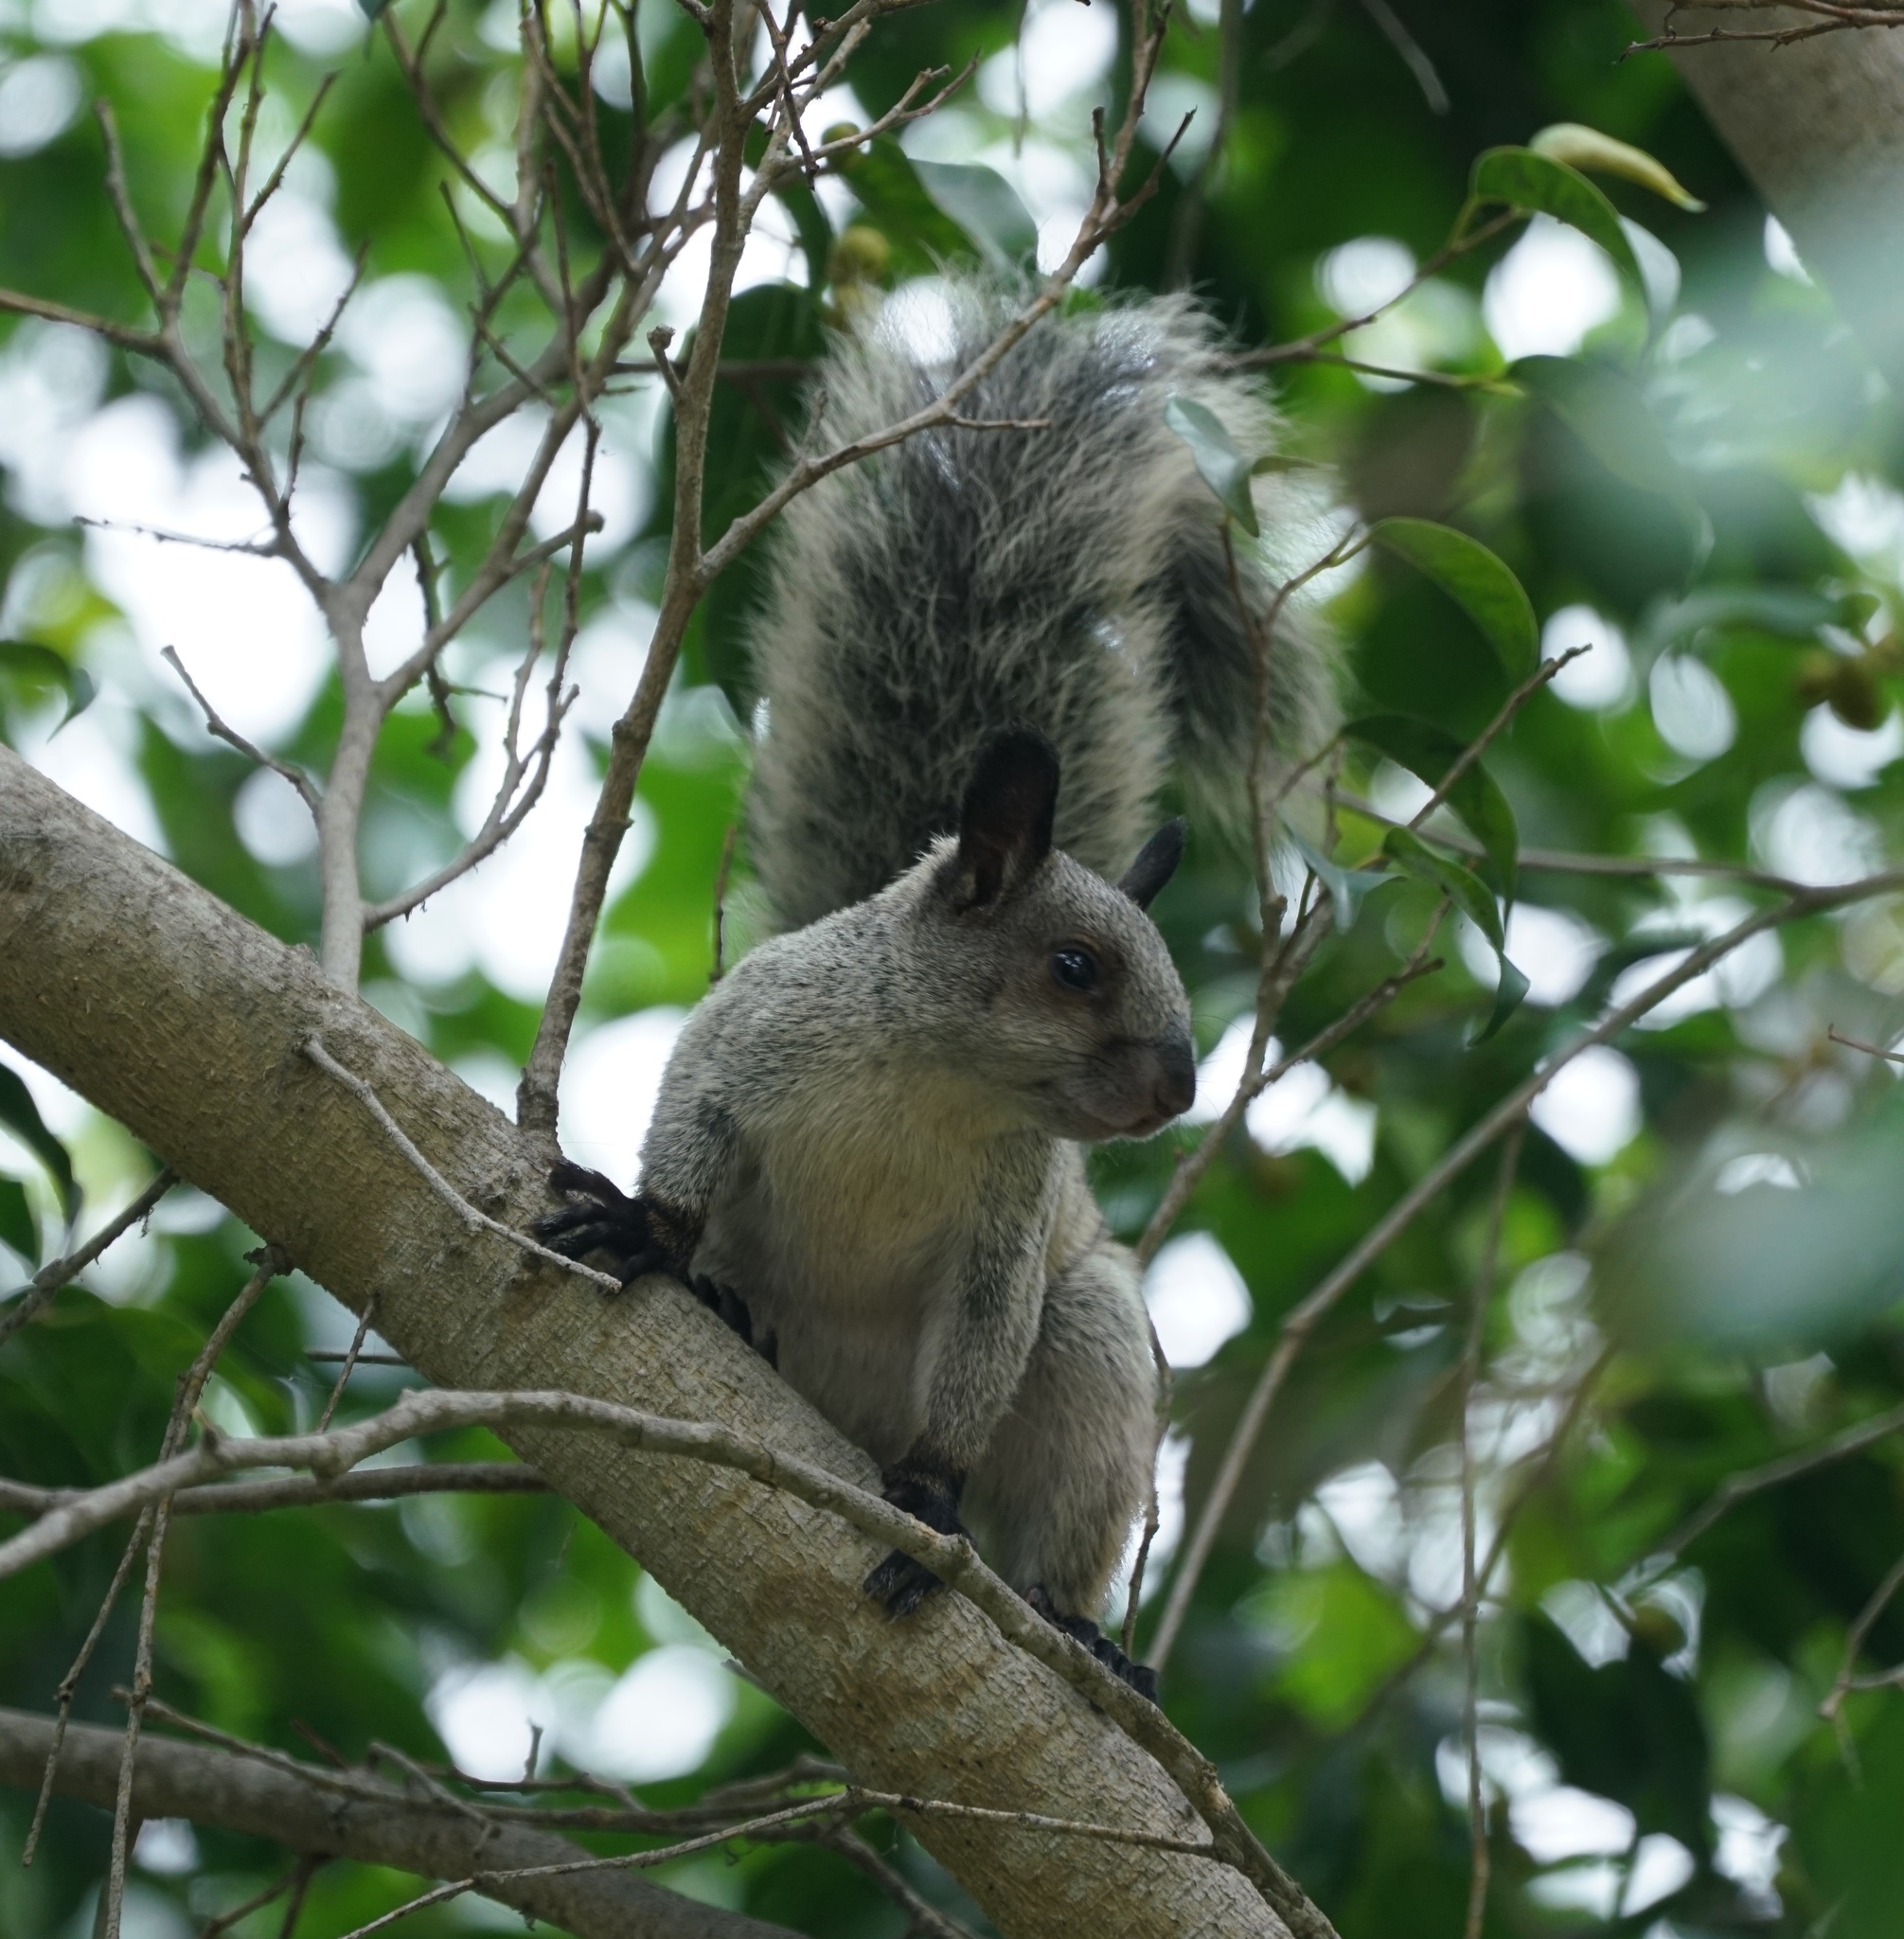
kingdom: Animalia
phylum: Chordata
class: Mammalia
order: Rodentia
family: Sciuridae
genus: Sciurus
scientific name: Sciurus stramineus
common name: Guayaquil squirrel
